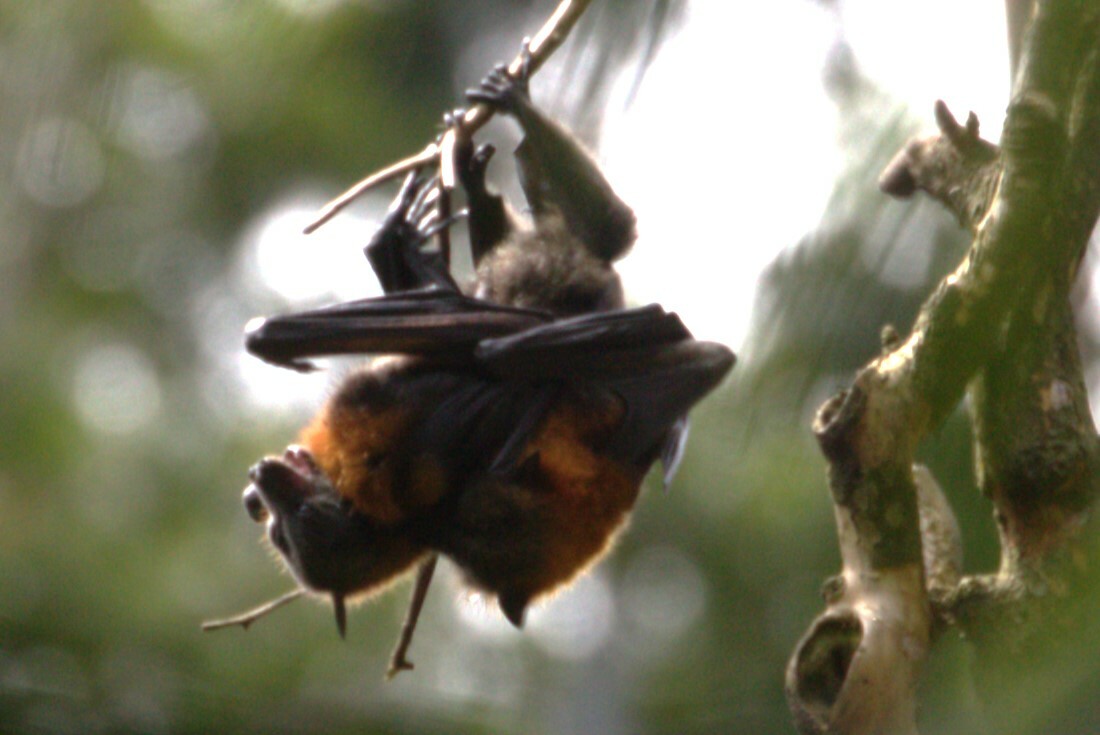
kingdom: Animalia
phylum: Chordata
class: Mammalia
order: Chiroptera
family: Pteropodidae
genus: Pteropus
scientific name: Pteropus poliocephalus
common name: Gray-headed flying fox
